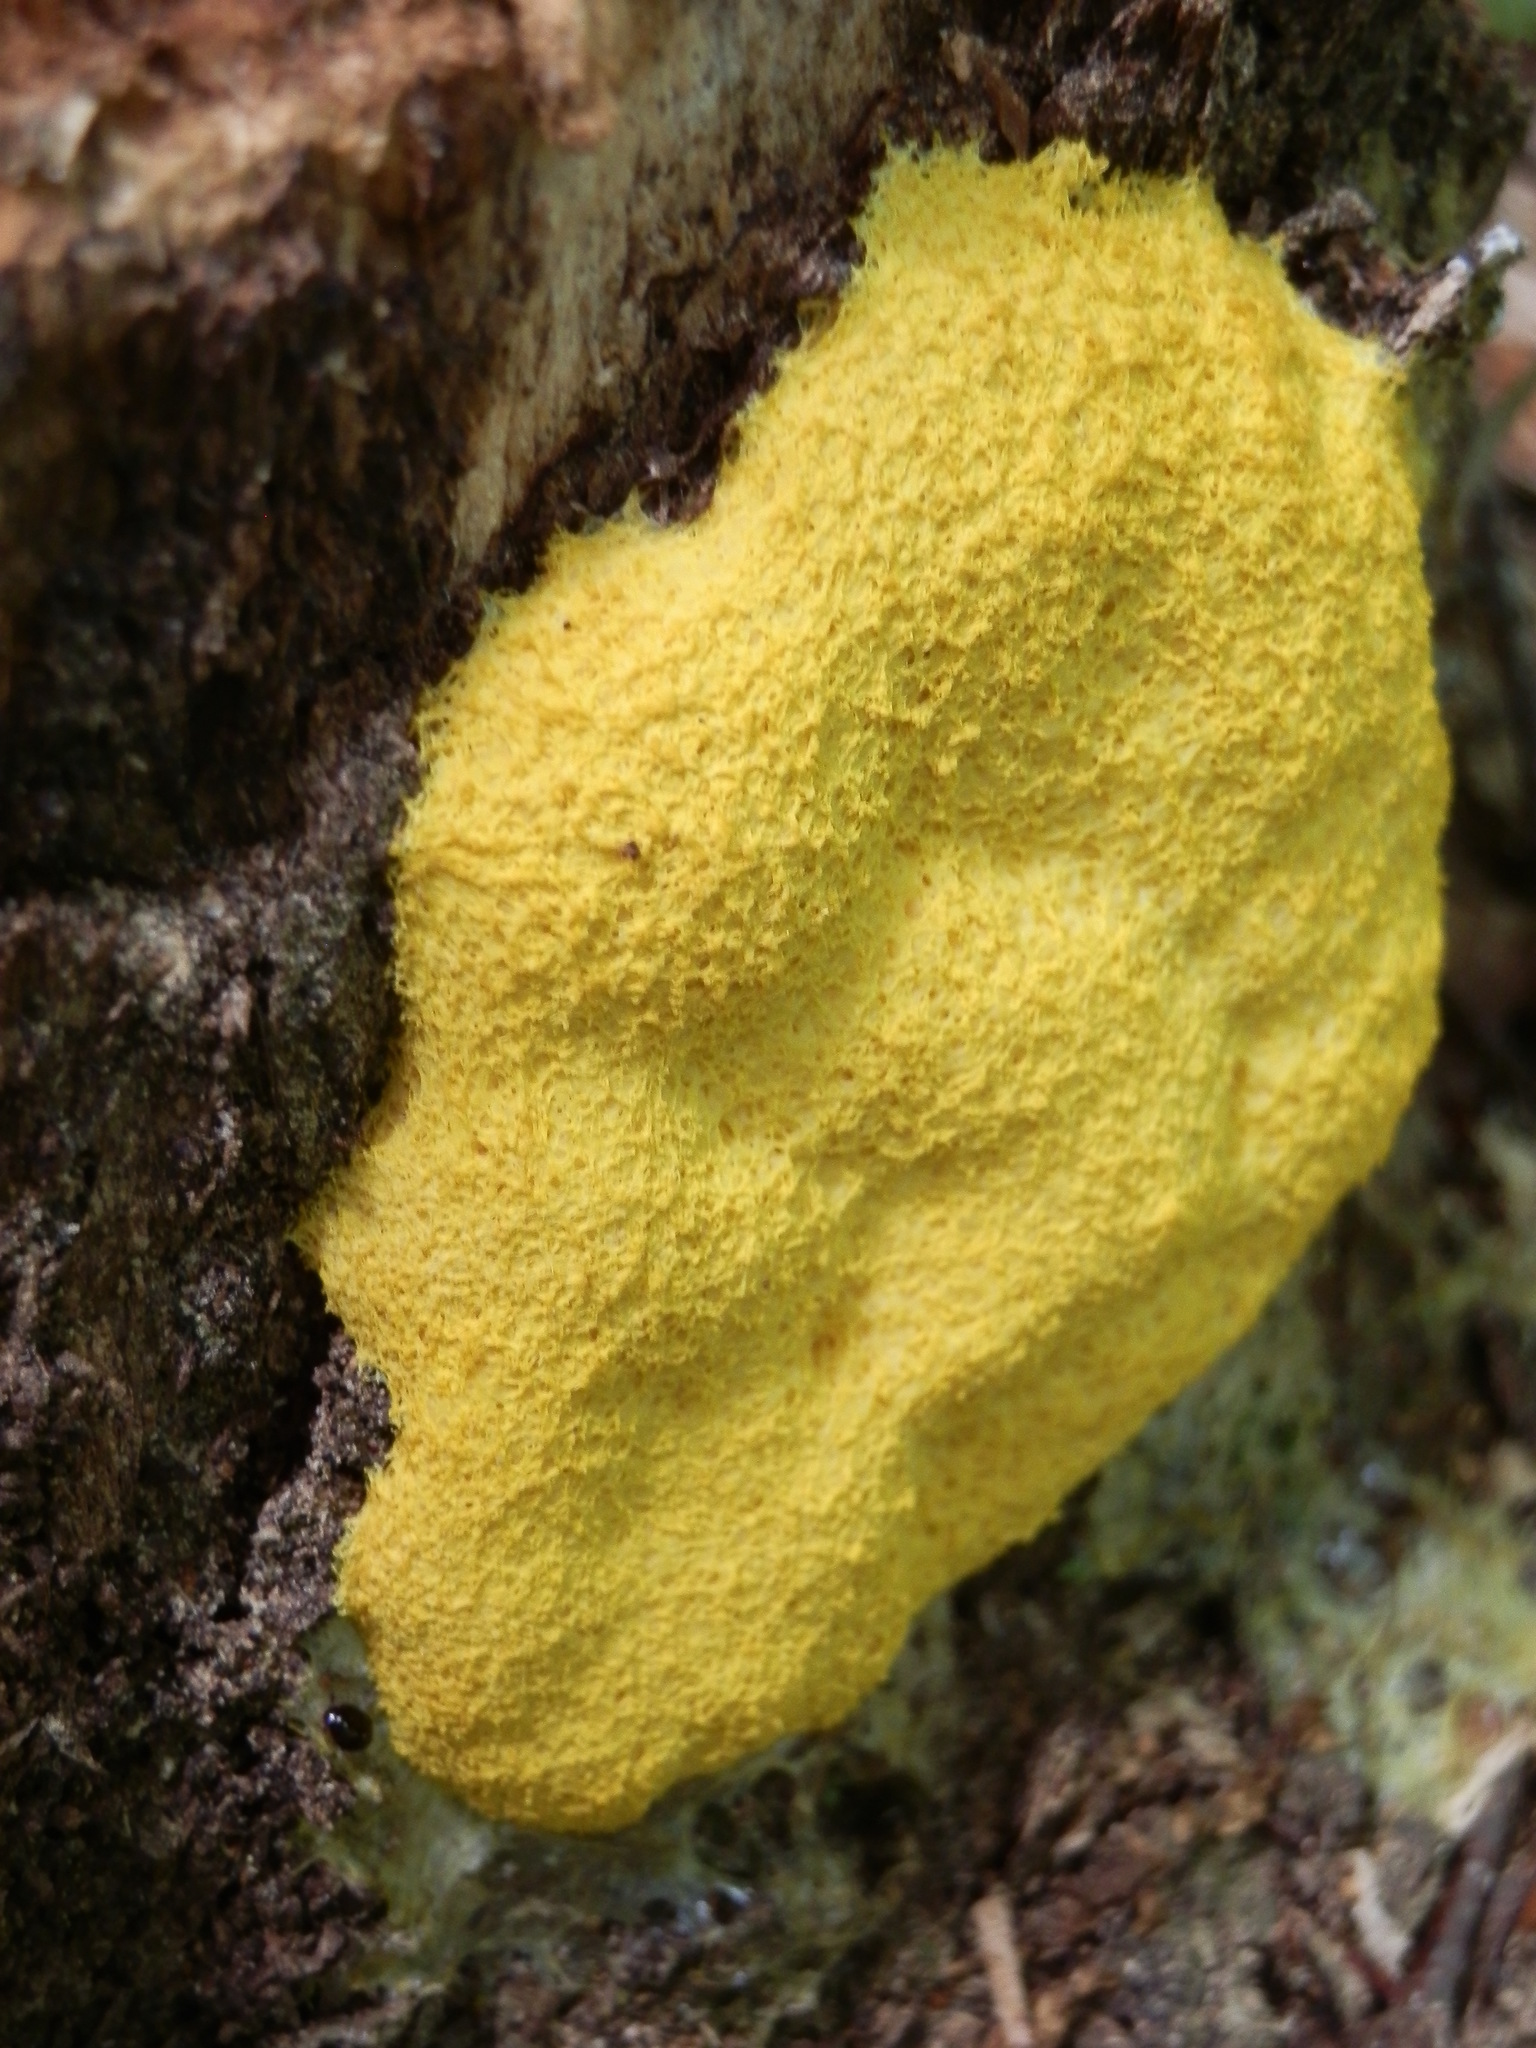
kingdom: Protozoa
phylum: Mycetozoa
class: Myxomycetes
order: Physarales
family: Physaraceae
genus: Fuligo
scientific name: Fuligo septica
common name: Dog vomit slime mold
